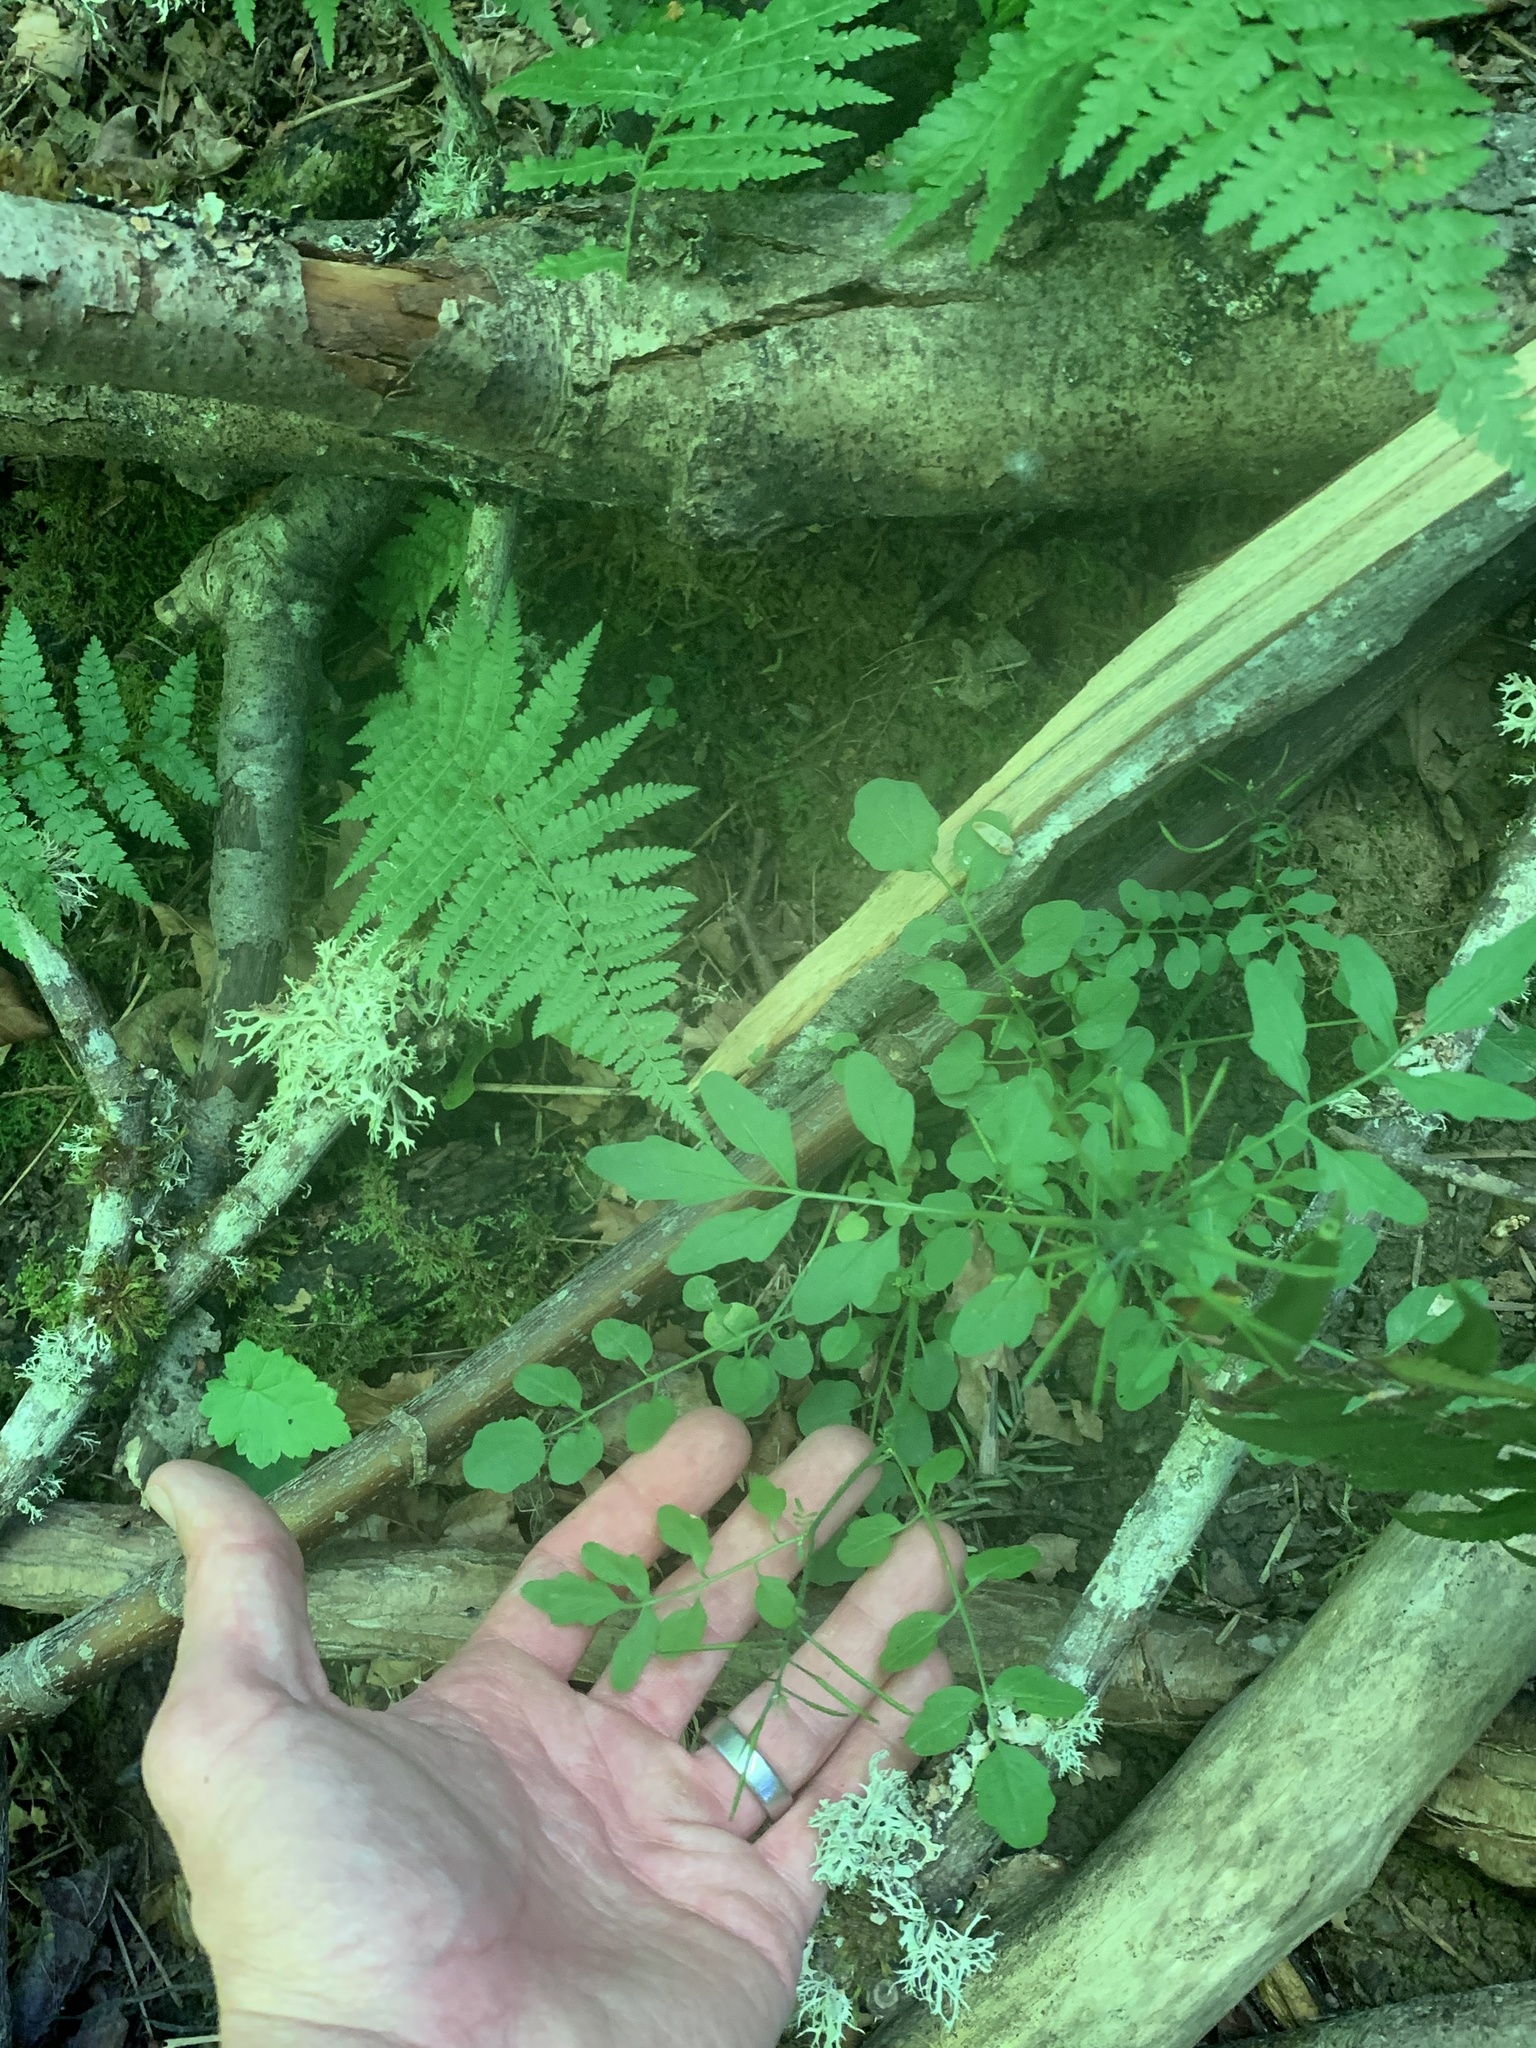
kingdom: Plantae
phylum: Tracheophyta
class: Magnoliopsida
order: Brassicales
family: Brassicaceae
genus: Cardamine
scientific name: Cardamine flexuosa
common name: Woodland bittercress
